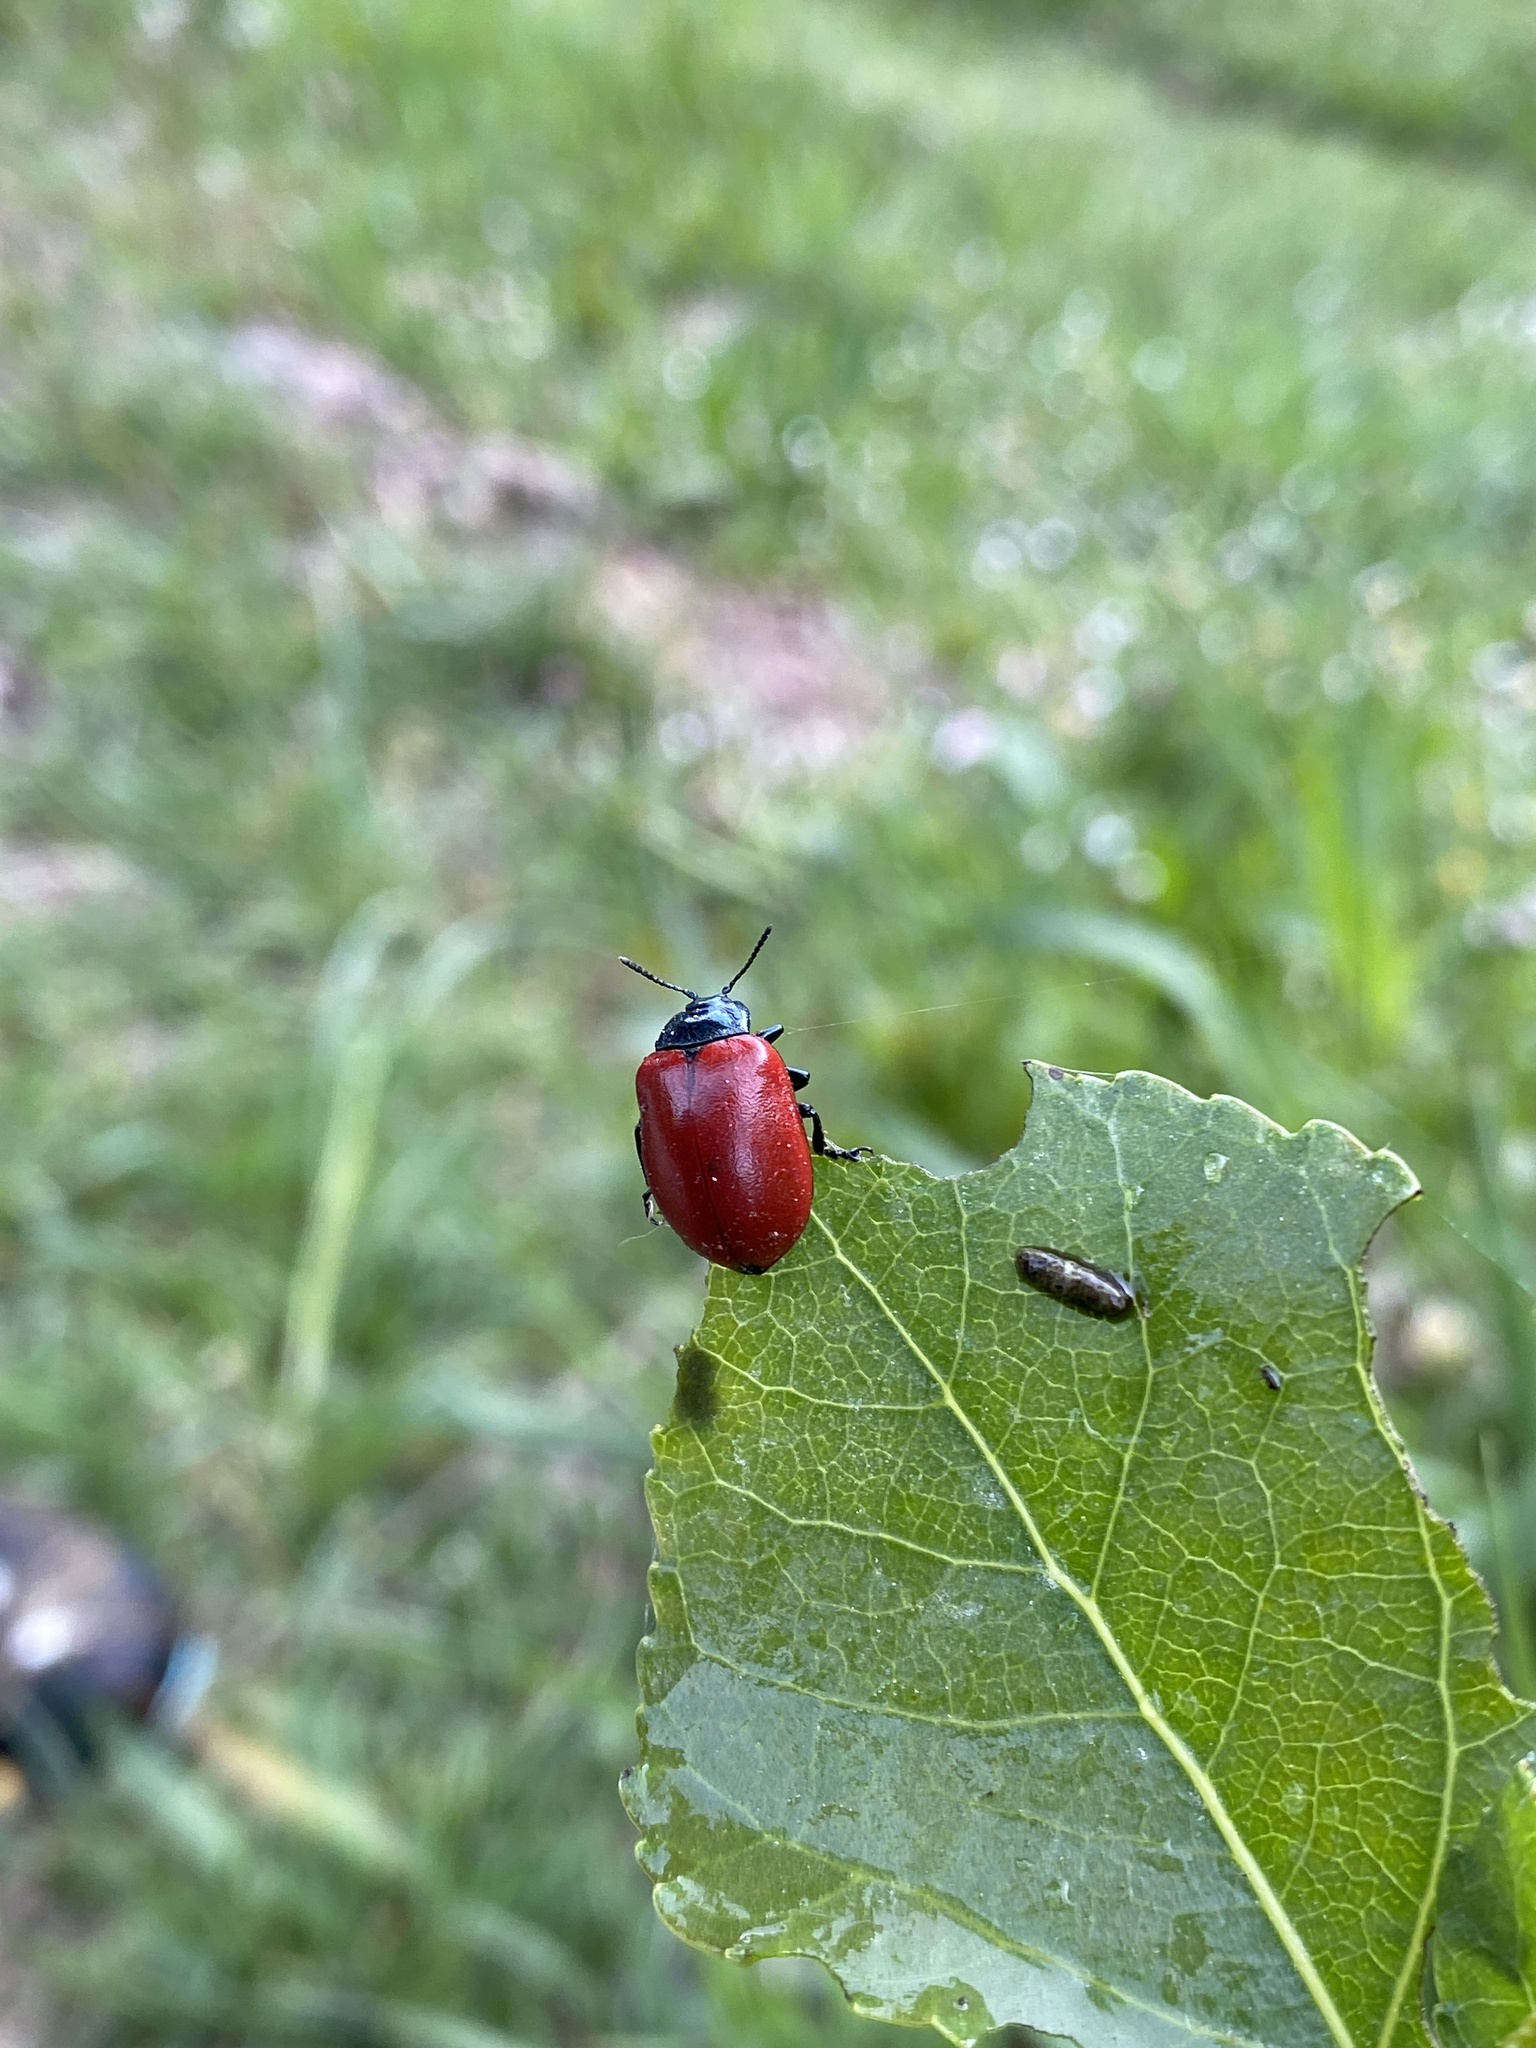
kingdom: Animalia
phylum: Arthropoda
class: Insecta
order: Coleoptera
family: Chrysomelidae
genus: Chrysomela
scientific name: Chrysomela populi
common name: Red poplar leaf beetle
